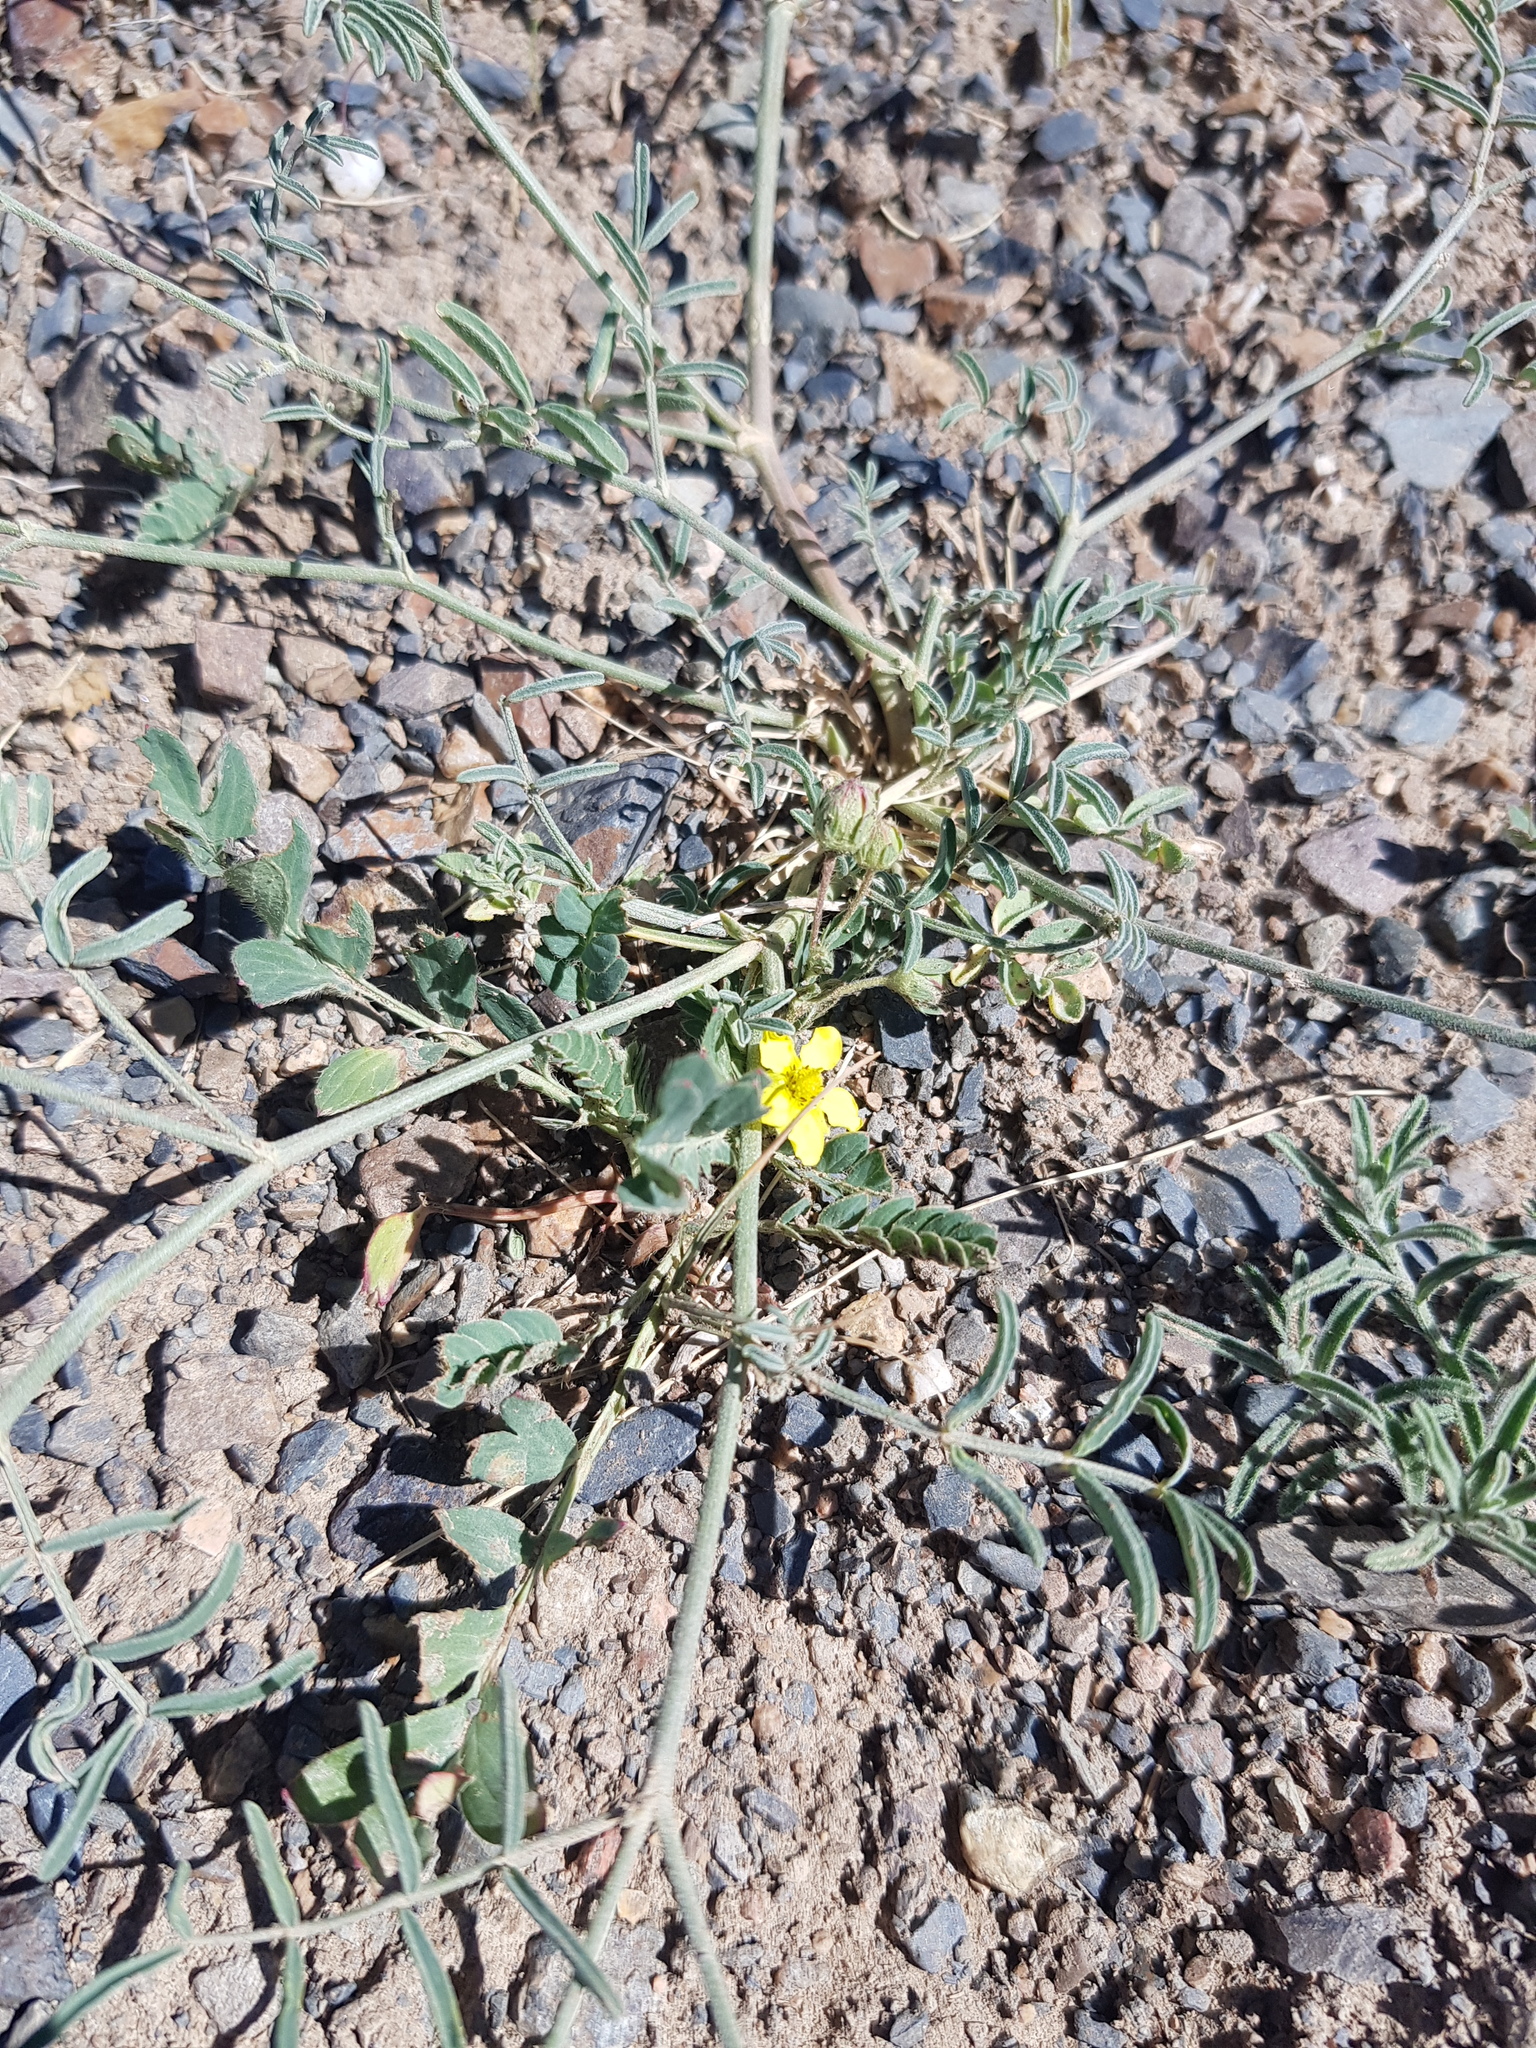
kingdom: Plantae
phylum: Tracheophyta
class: Magnoliopsida
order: Rosales
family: Rosaceae
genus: Sibbaldianthe
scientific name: Sibbaldianthe bifurca
